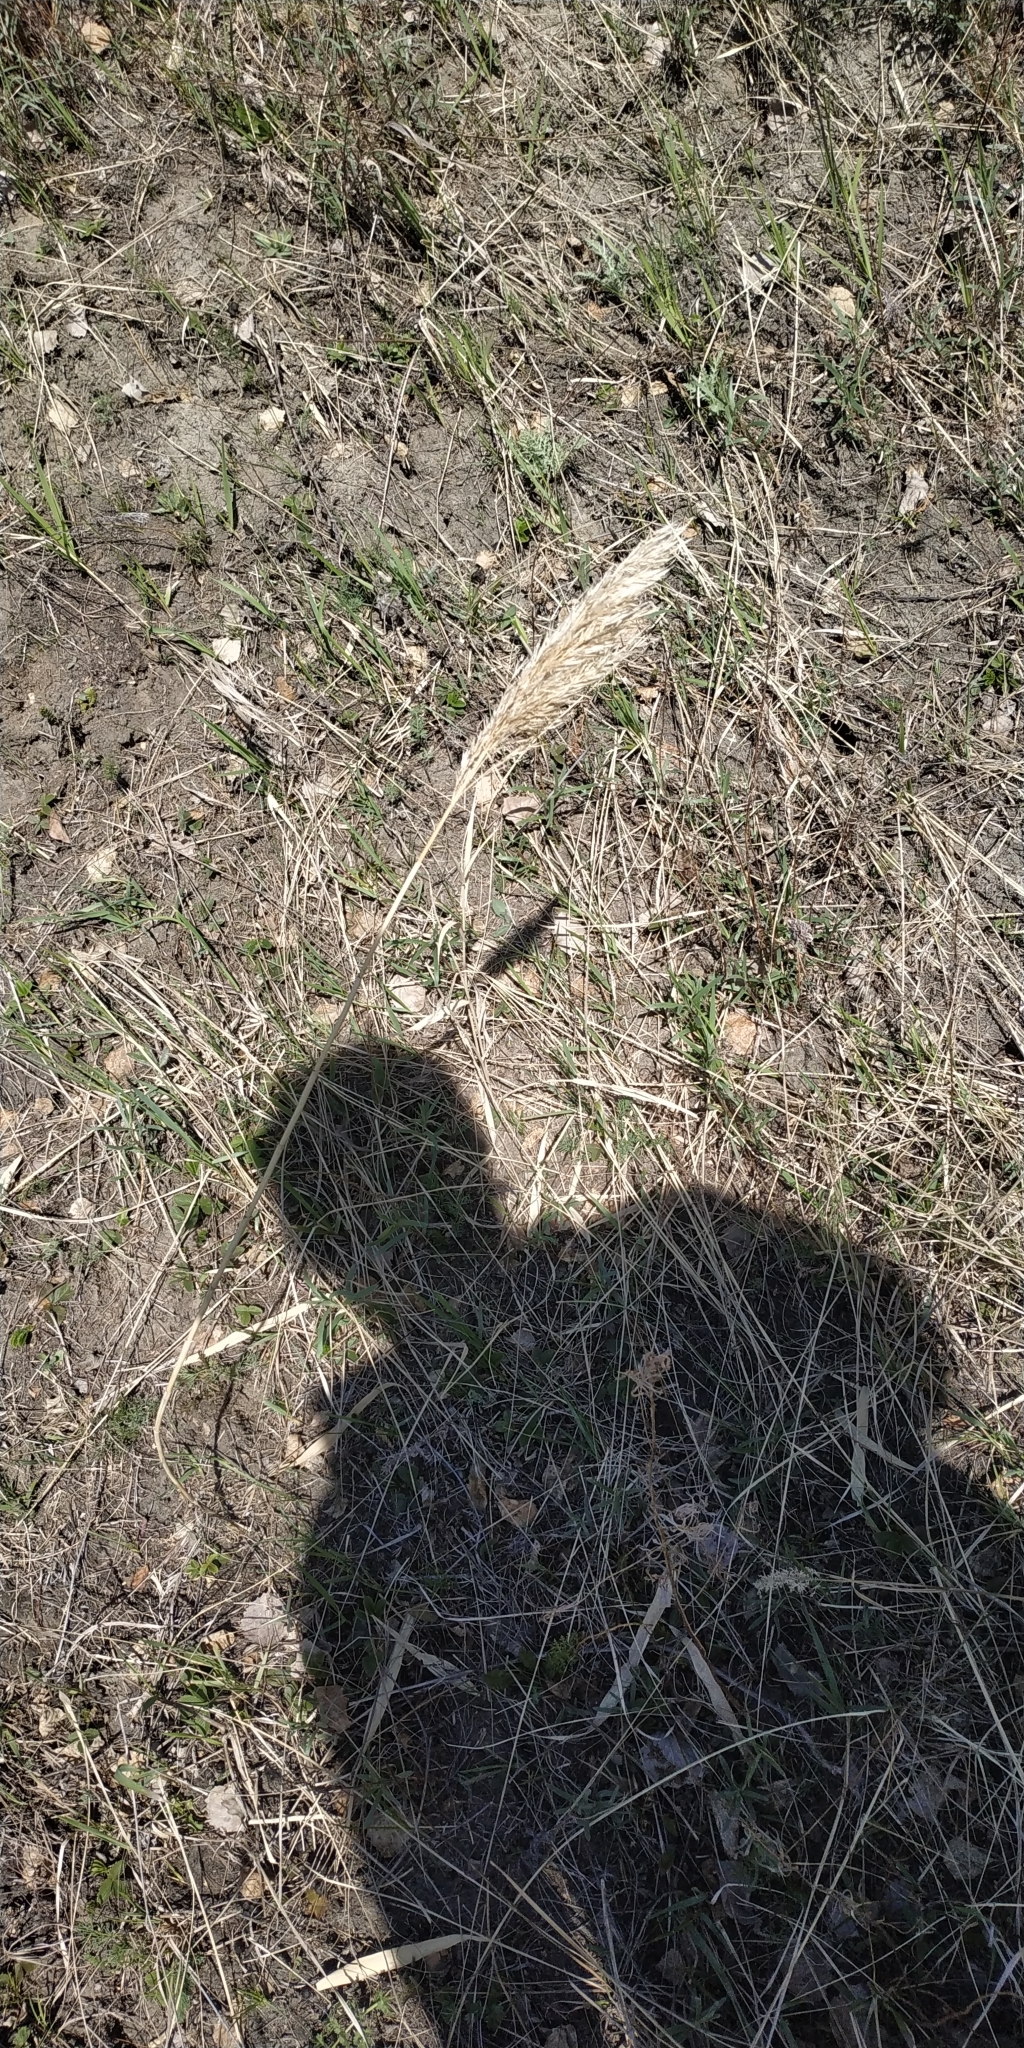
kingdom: Plantae
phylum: Tracheophyta
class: Liliopsida
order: Poales
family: Poaceae
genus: Phragmites
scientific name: Phragmites australis
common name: Common reed
